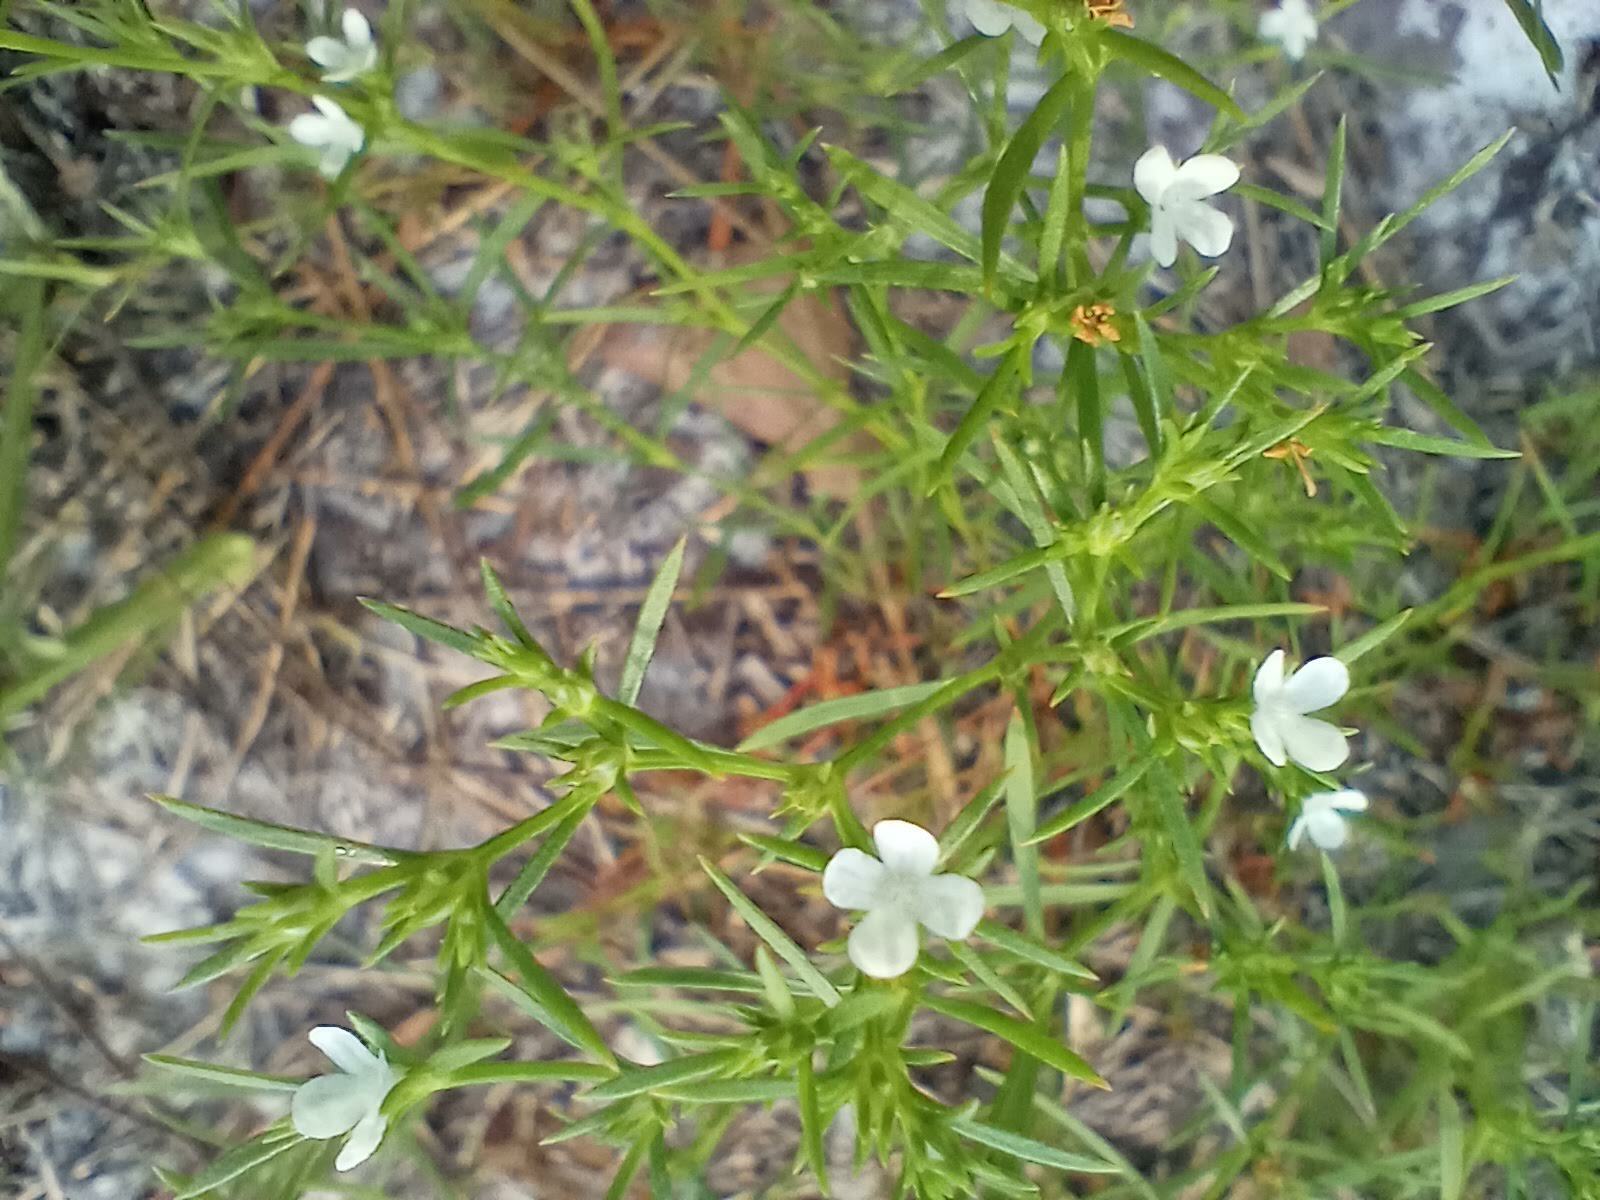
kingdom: Plantae
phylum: Tracheophyta
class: Magnoliopsida
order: Lamiales
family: Tetrachondraceae
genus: Polypremum
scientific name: Polypremum procumbens
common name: Juniper-leaf
